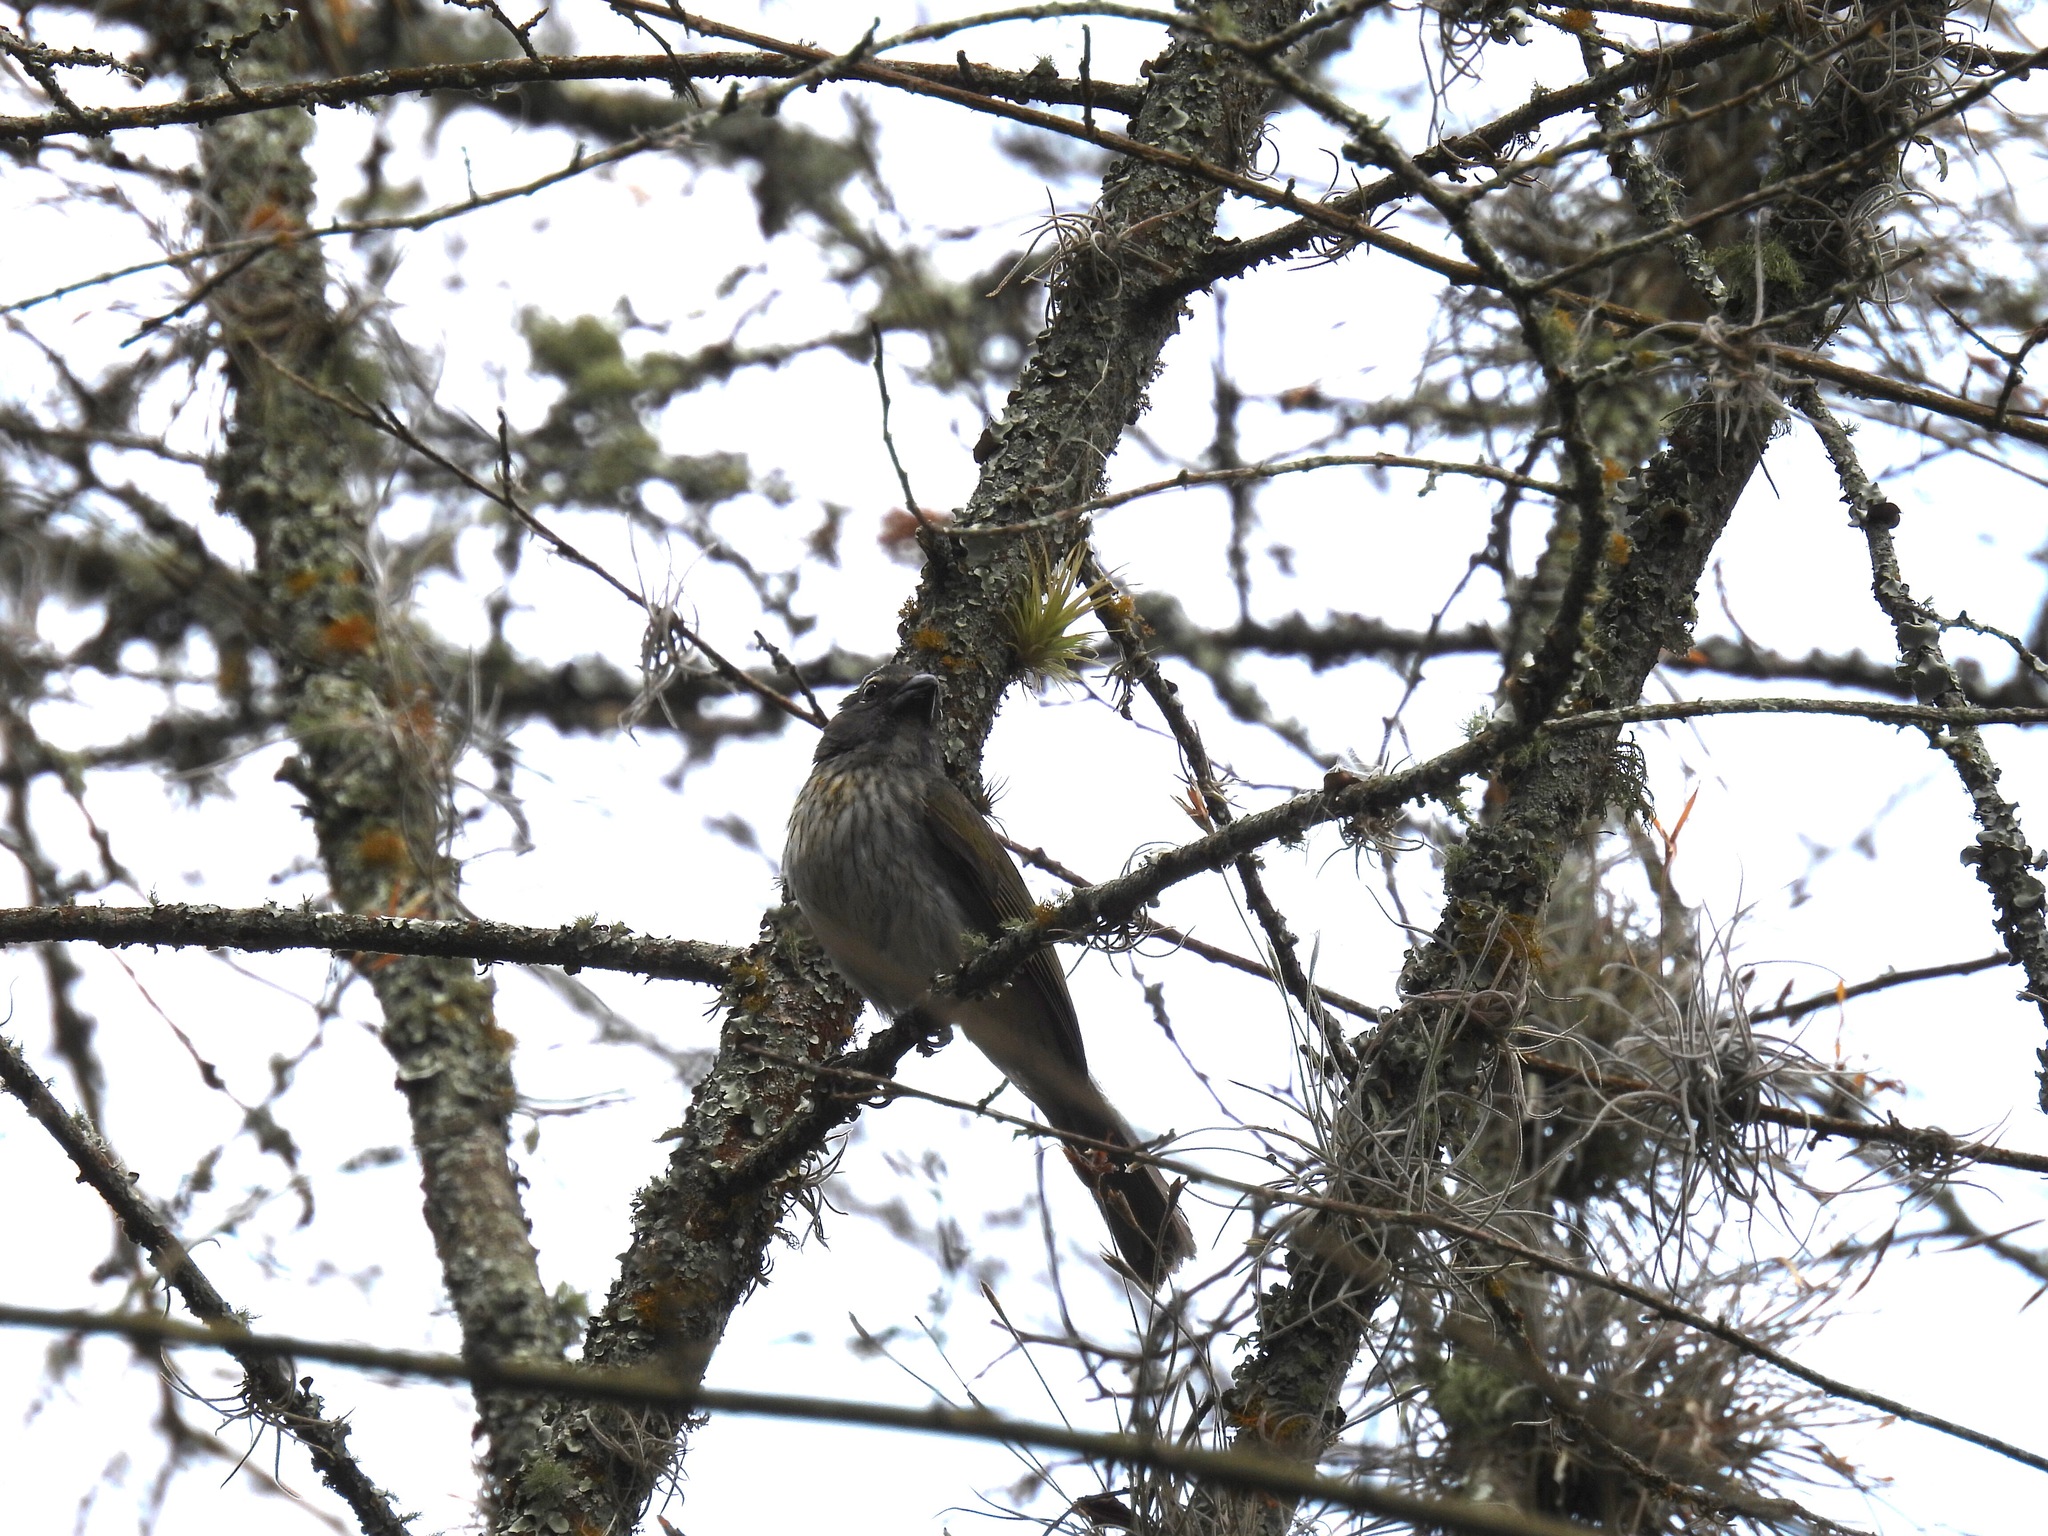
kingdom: Animalia
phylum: Chordata
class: Aves
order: Passeriformes
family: Thraupidae
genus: Saltator
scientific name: Saltator striatipectus
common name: Streaked saltator
